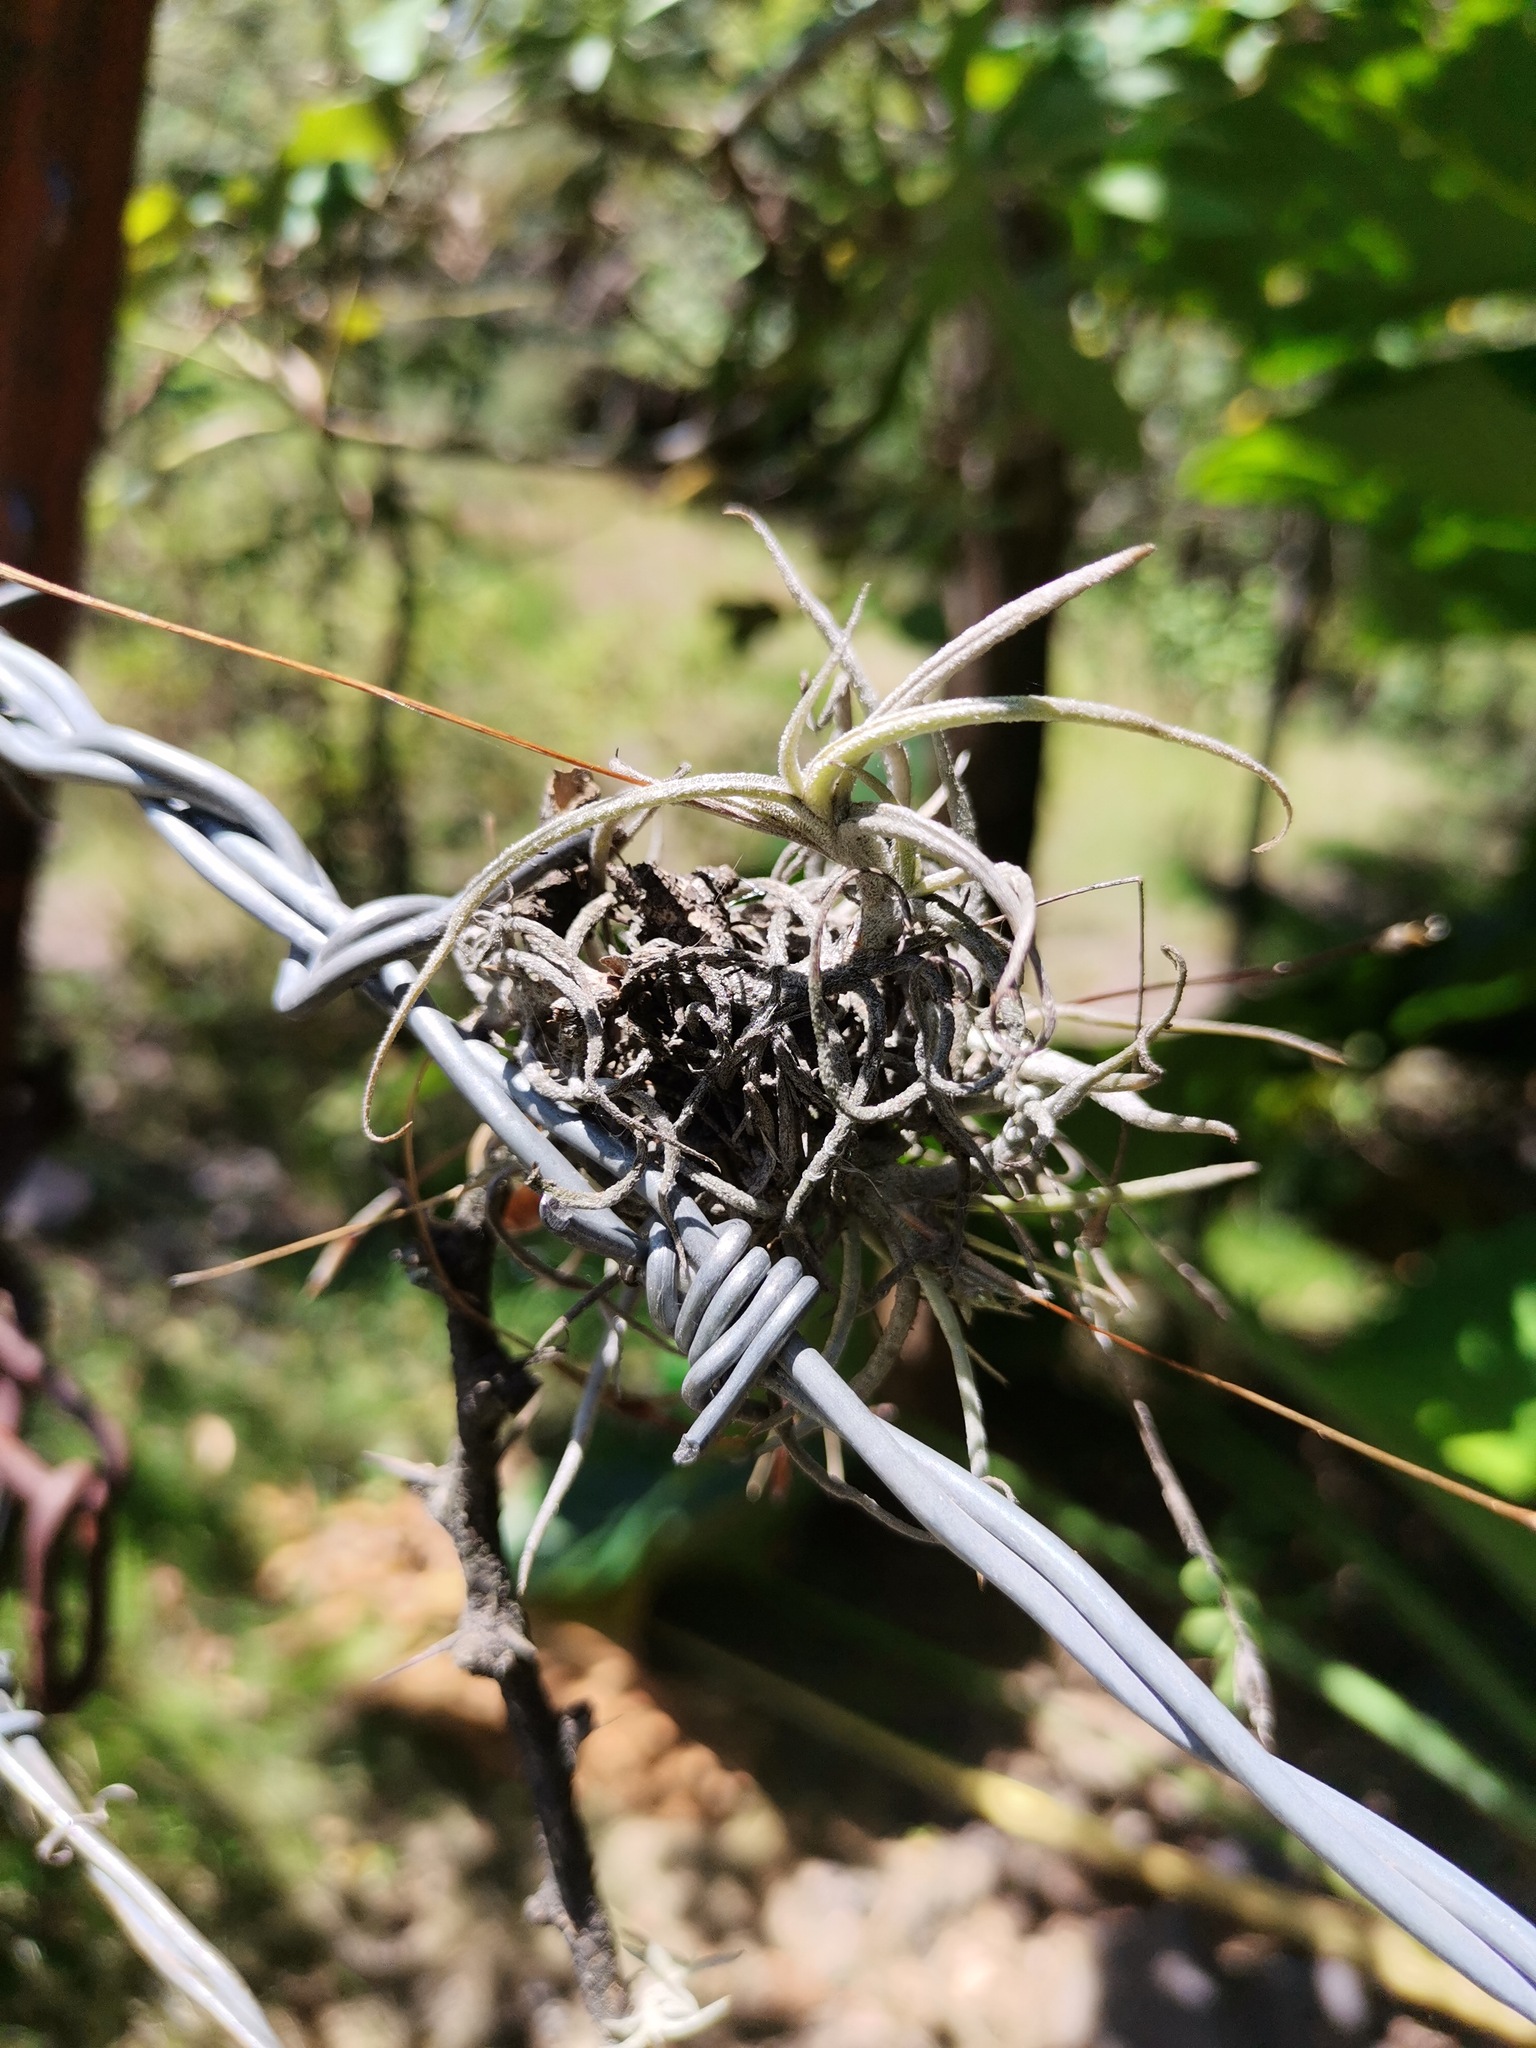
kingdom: Plantae
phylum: Tracheophyta
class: Liliopsida
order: Poales
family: Bromeliaceae
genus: Tillandsia
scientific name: Tillandsia recurvata
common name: Small ballmoss
